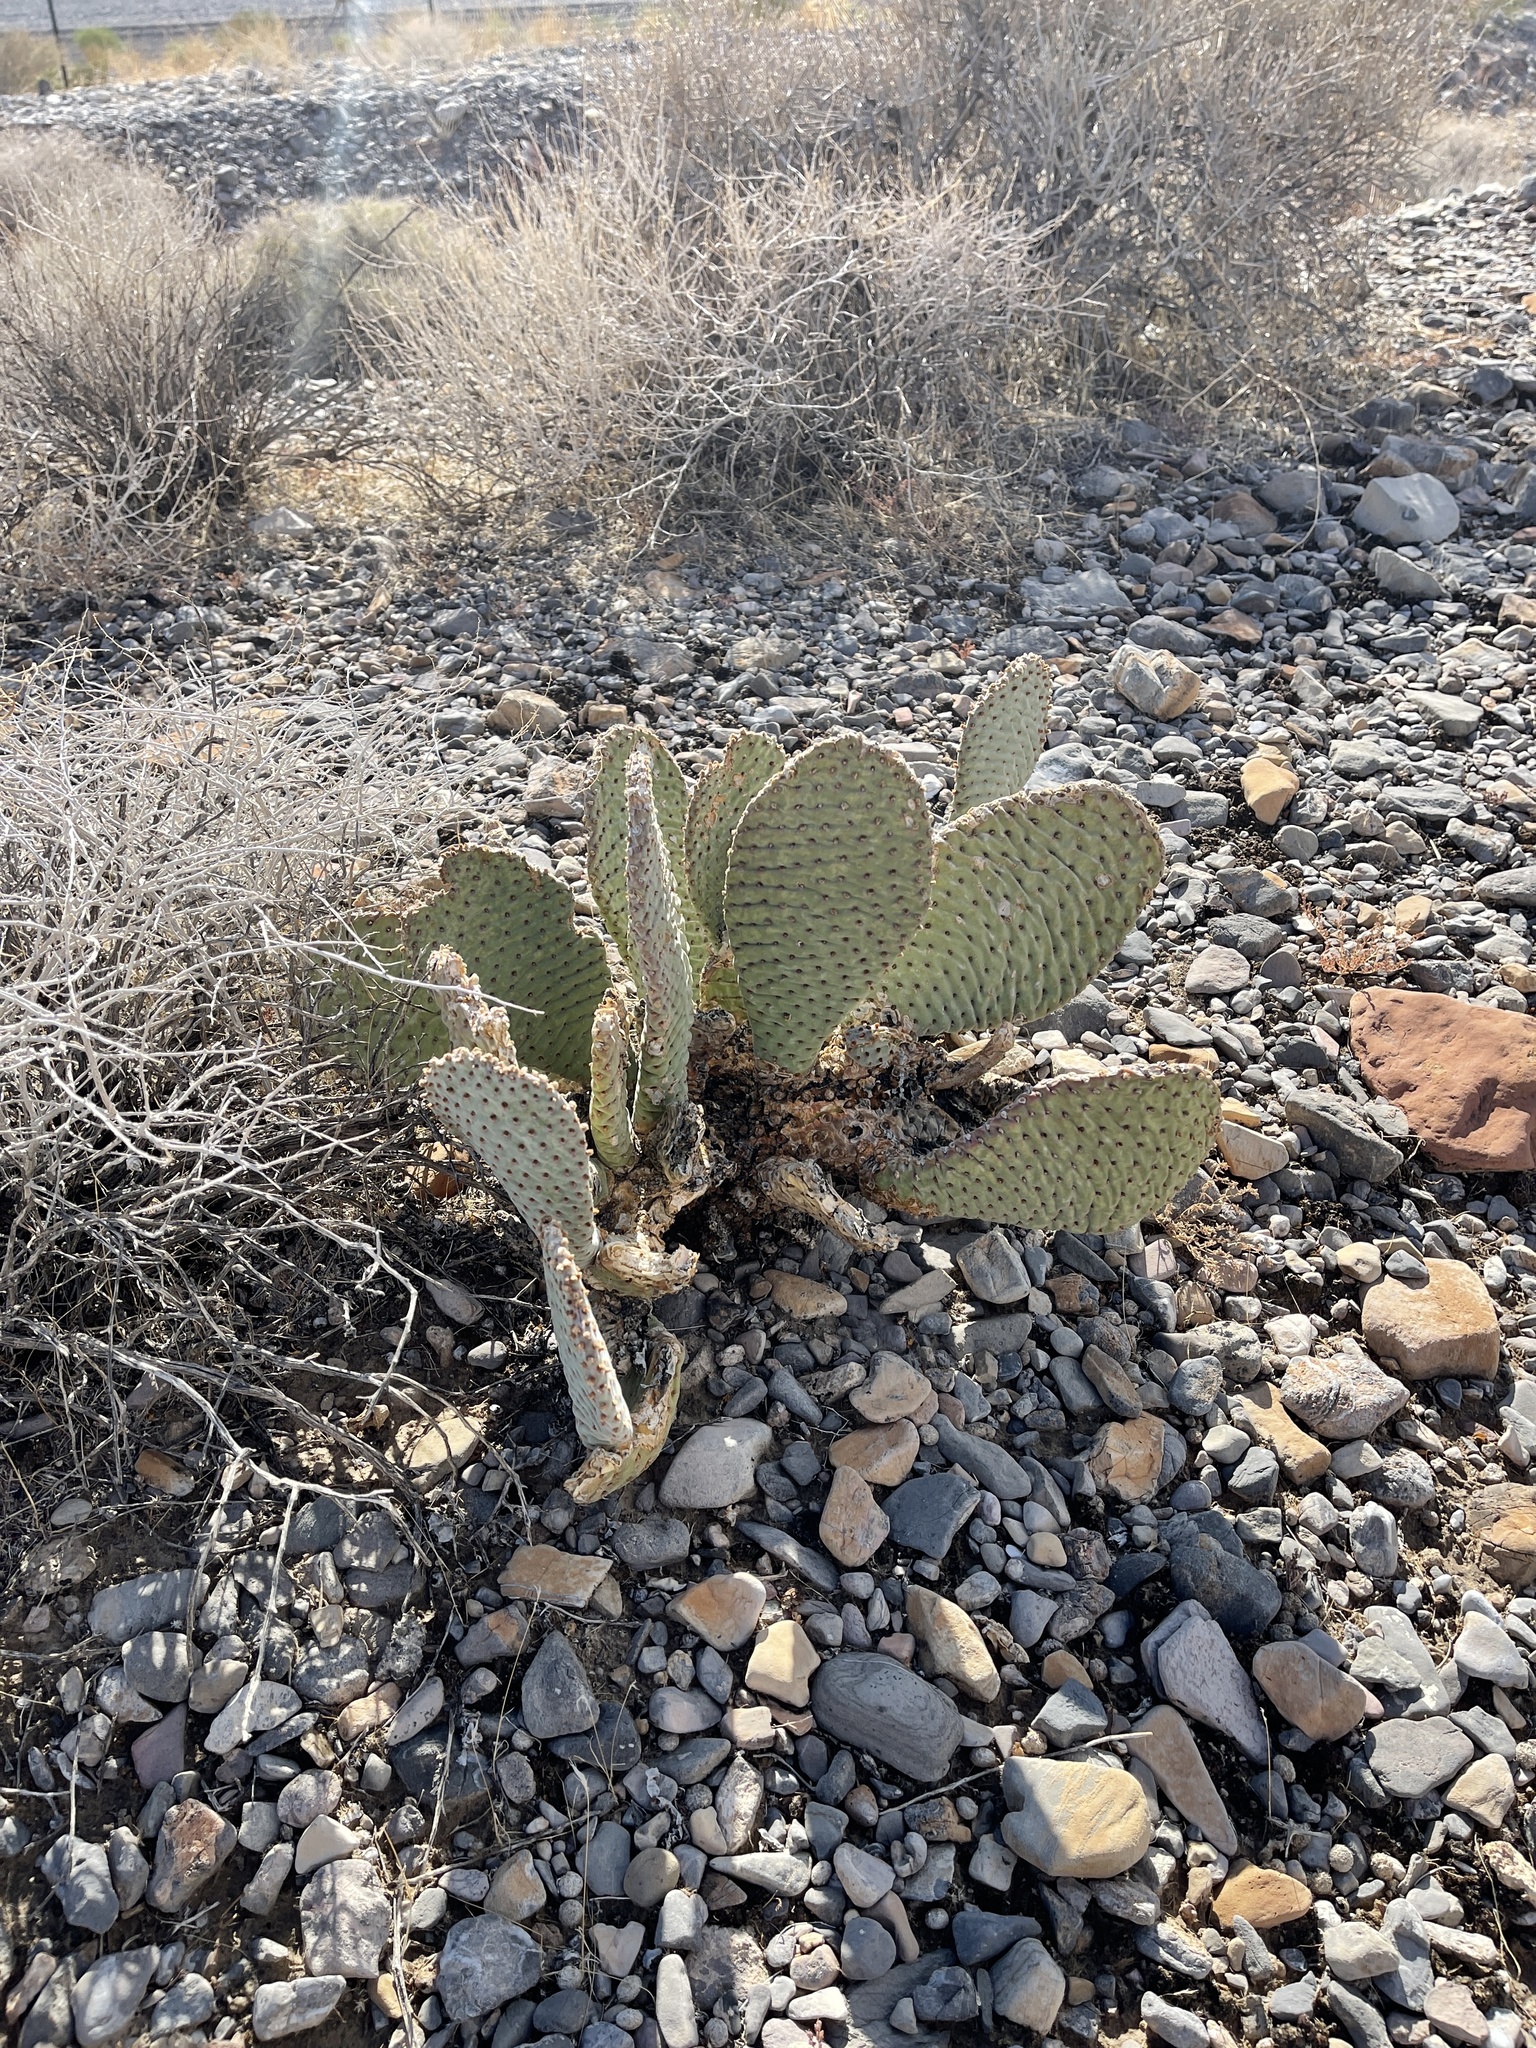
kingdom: Plantae
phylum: Tracheophyta
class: Magnoliopsida
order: Caryophyllales
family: Cactaceae
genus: Opuntia
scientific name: Opuntia basilaris
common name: Beavertail prickly-pear
